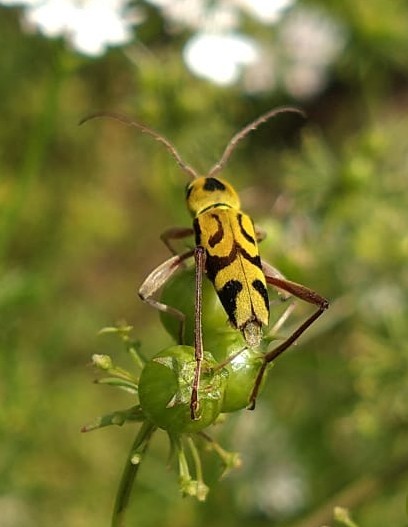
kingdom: Animalia
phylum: Arthropoda
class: Insecta
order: Coleoptera
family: Cerambycidae
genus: Chlorophorus
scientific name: Chlorophorus agnatus
